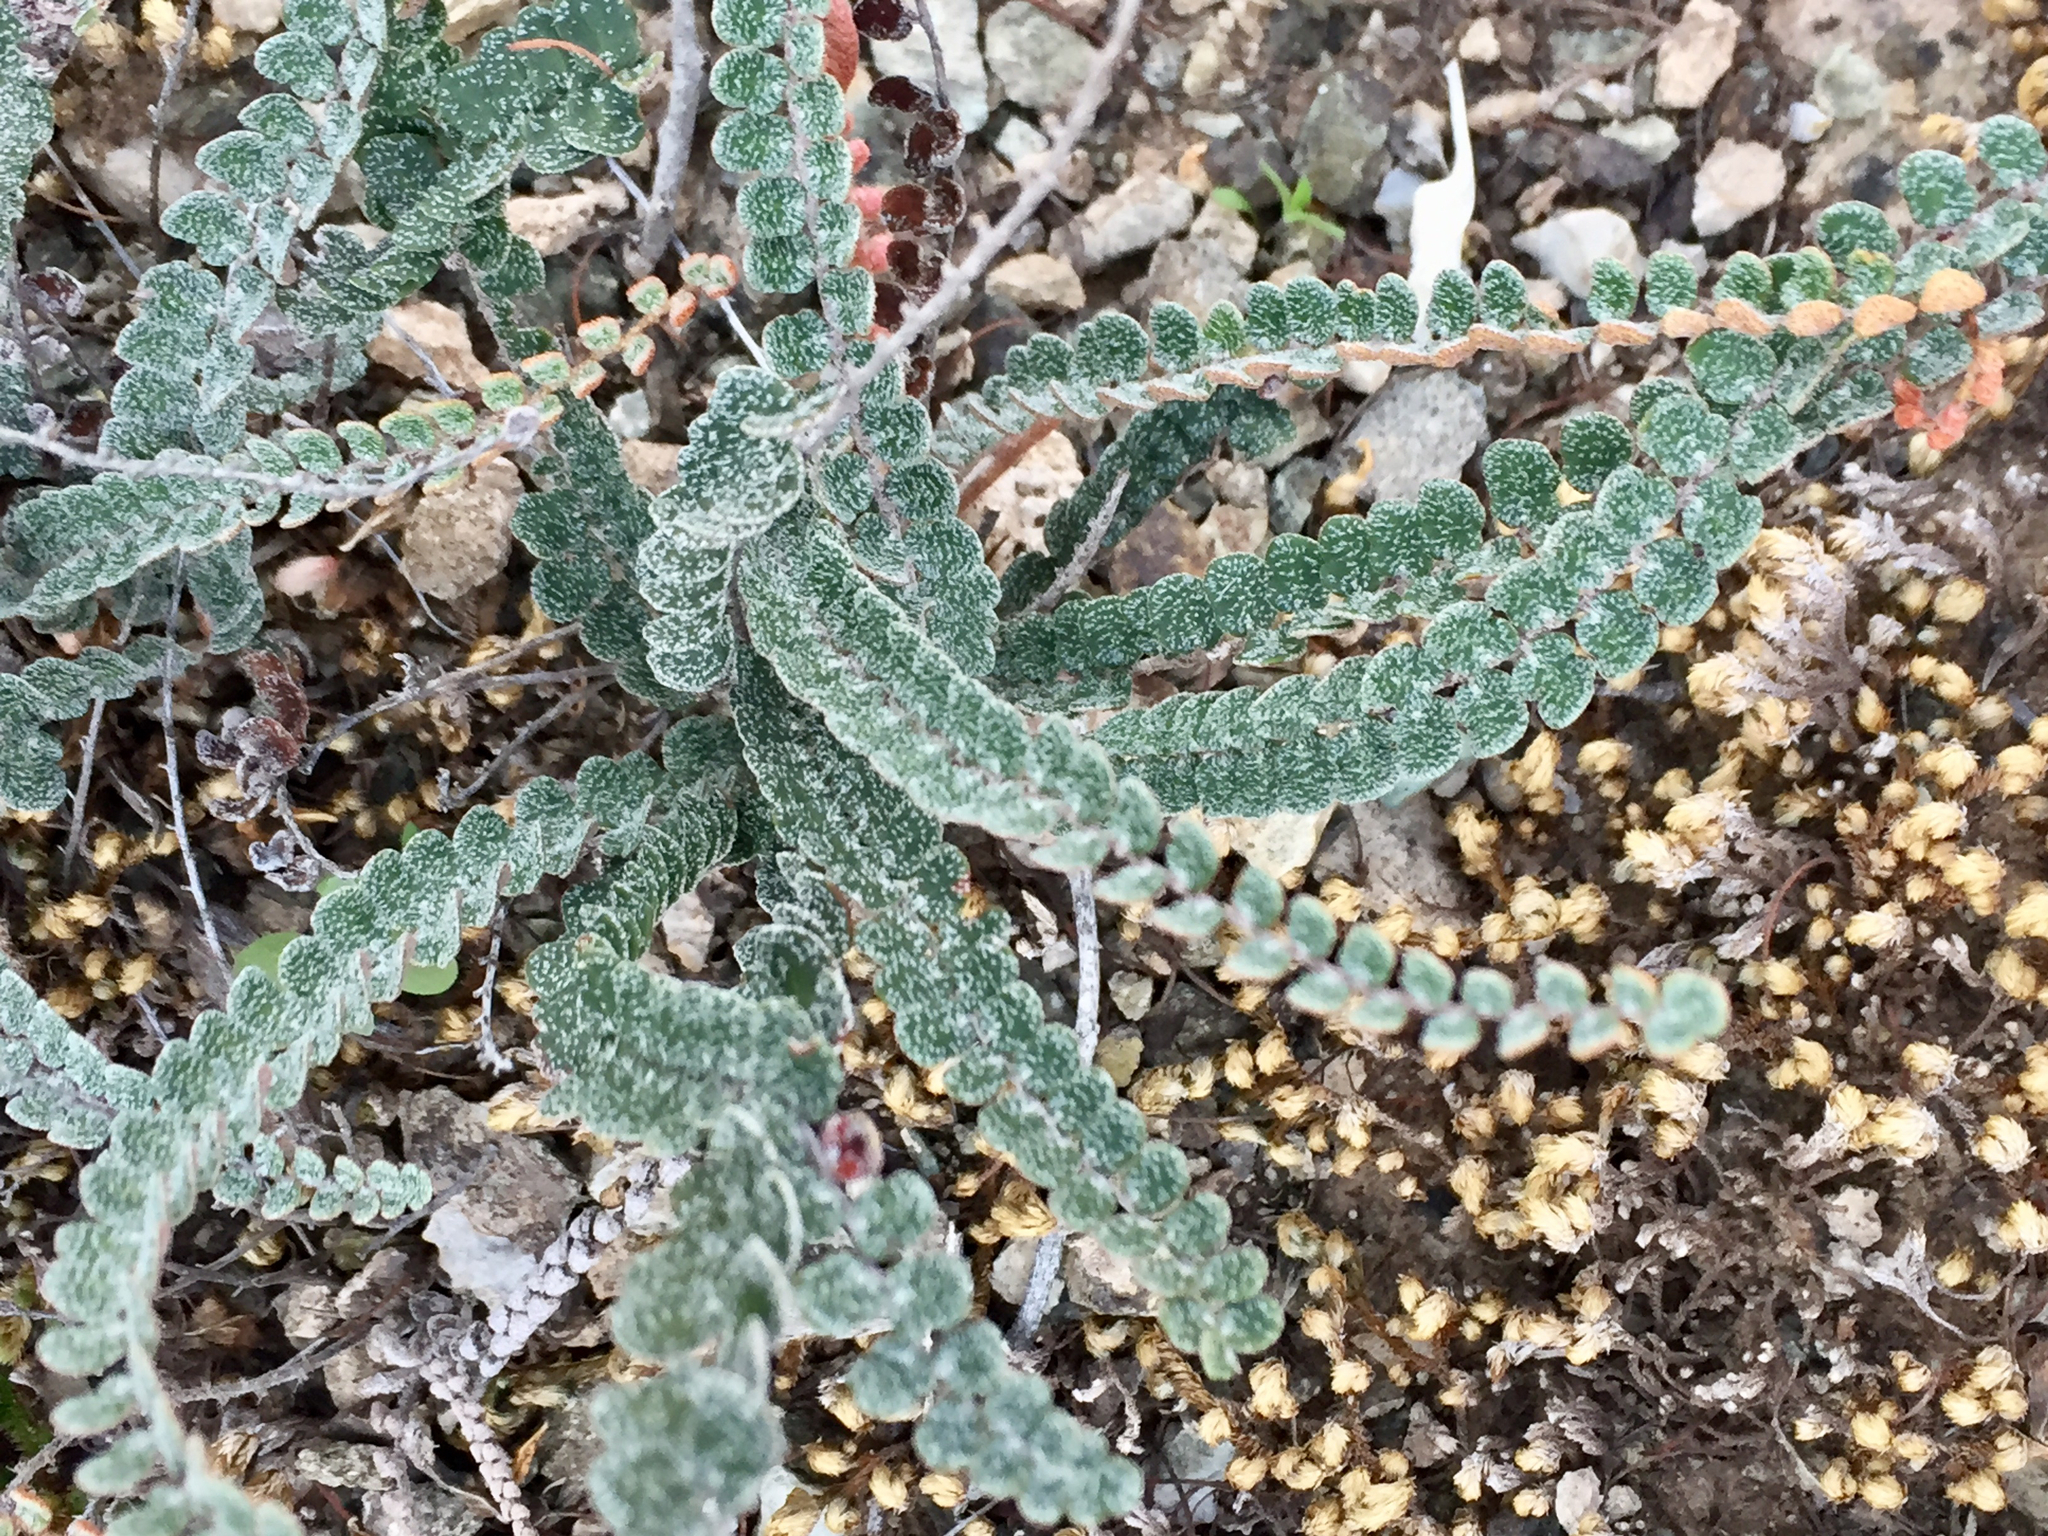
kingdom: Plantae
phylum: Tracheophyta
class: Polypodiopsida
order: Polypodiales
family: Pteridaceae
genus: Astrolepis
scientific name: Astrolepis cochisensis
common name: Scaly cloak fern
